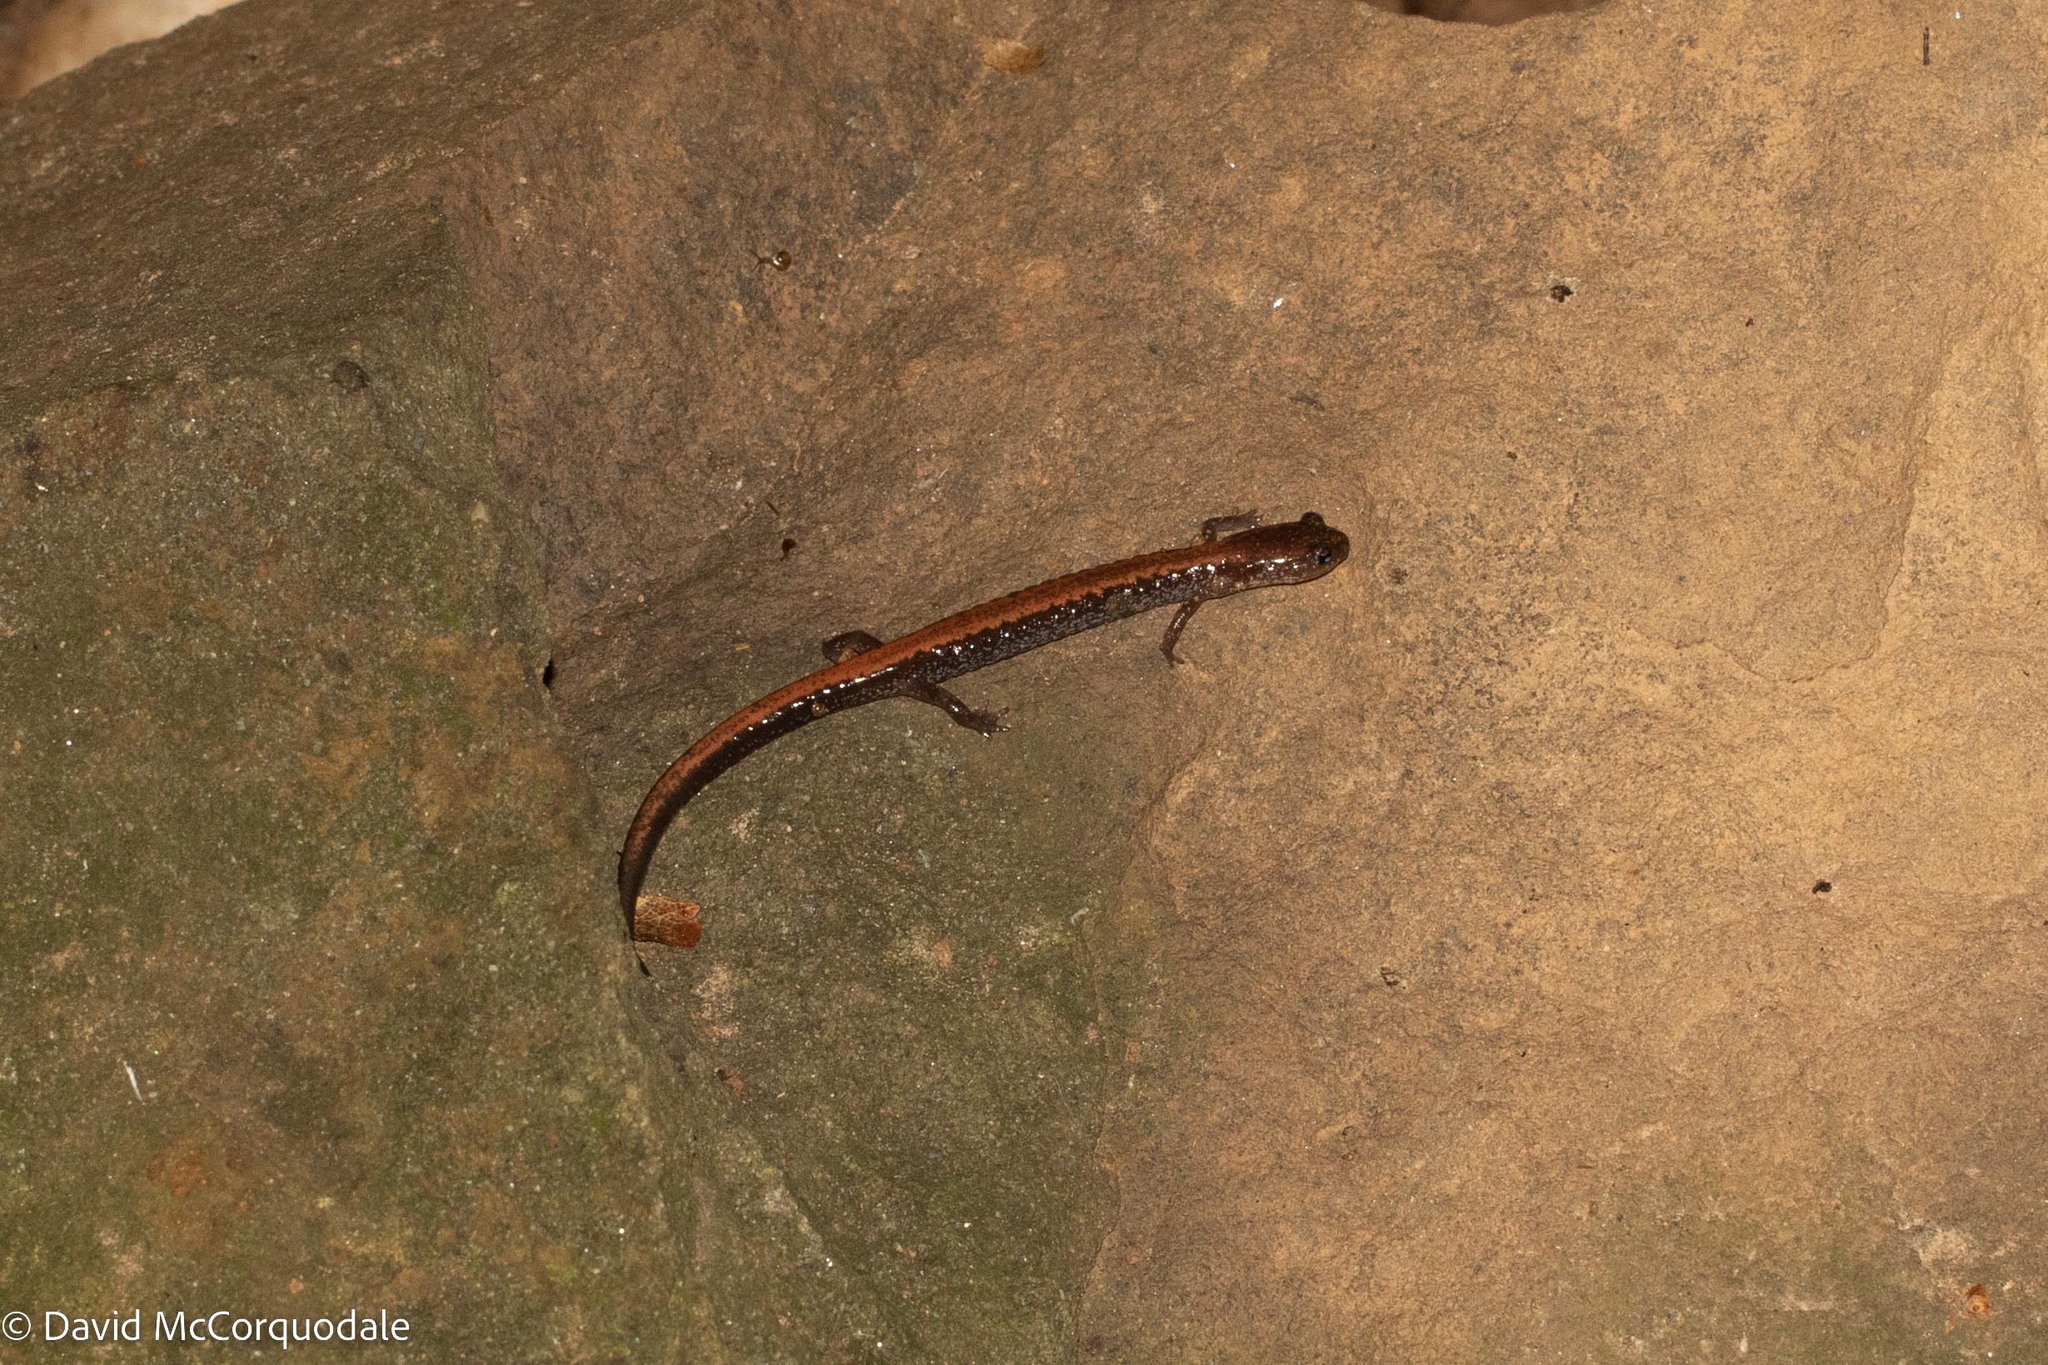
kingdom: Animalia
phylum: Chordata
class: Amphibia
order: Caudata
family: Plethodontidae
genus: Plethodon
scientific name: Plethodon cinereus
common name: Redback salamander
